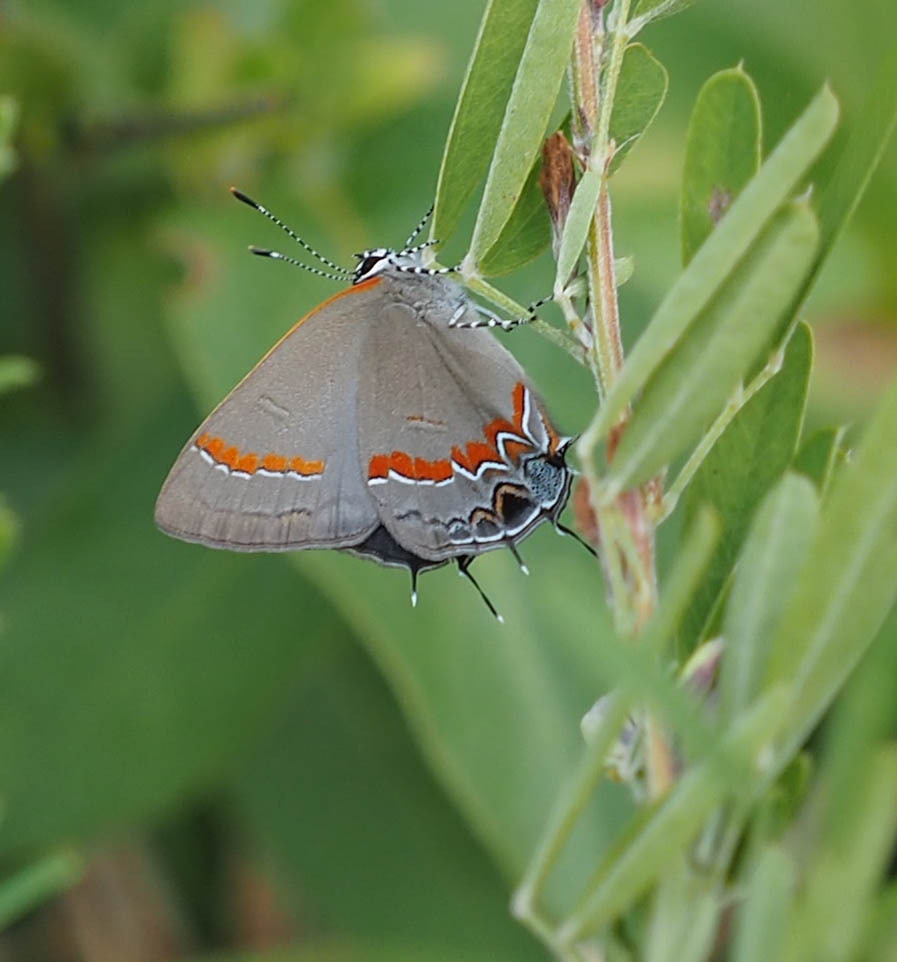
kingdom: Animalia
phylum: Arthropoda
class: Insecta
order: Lepidoptera
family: Lycaenidae
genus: Calycopis
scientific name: Calycopis cecrops
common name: Red-banded hairstreak
